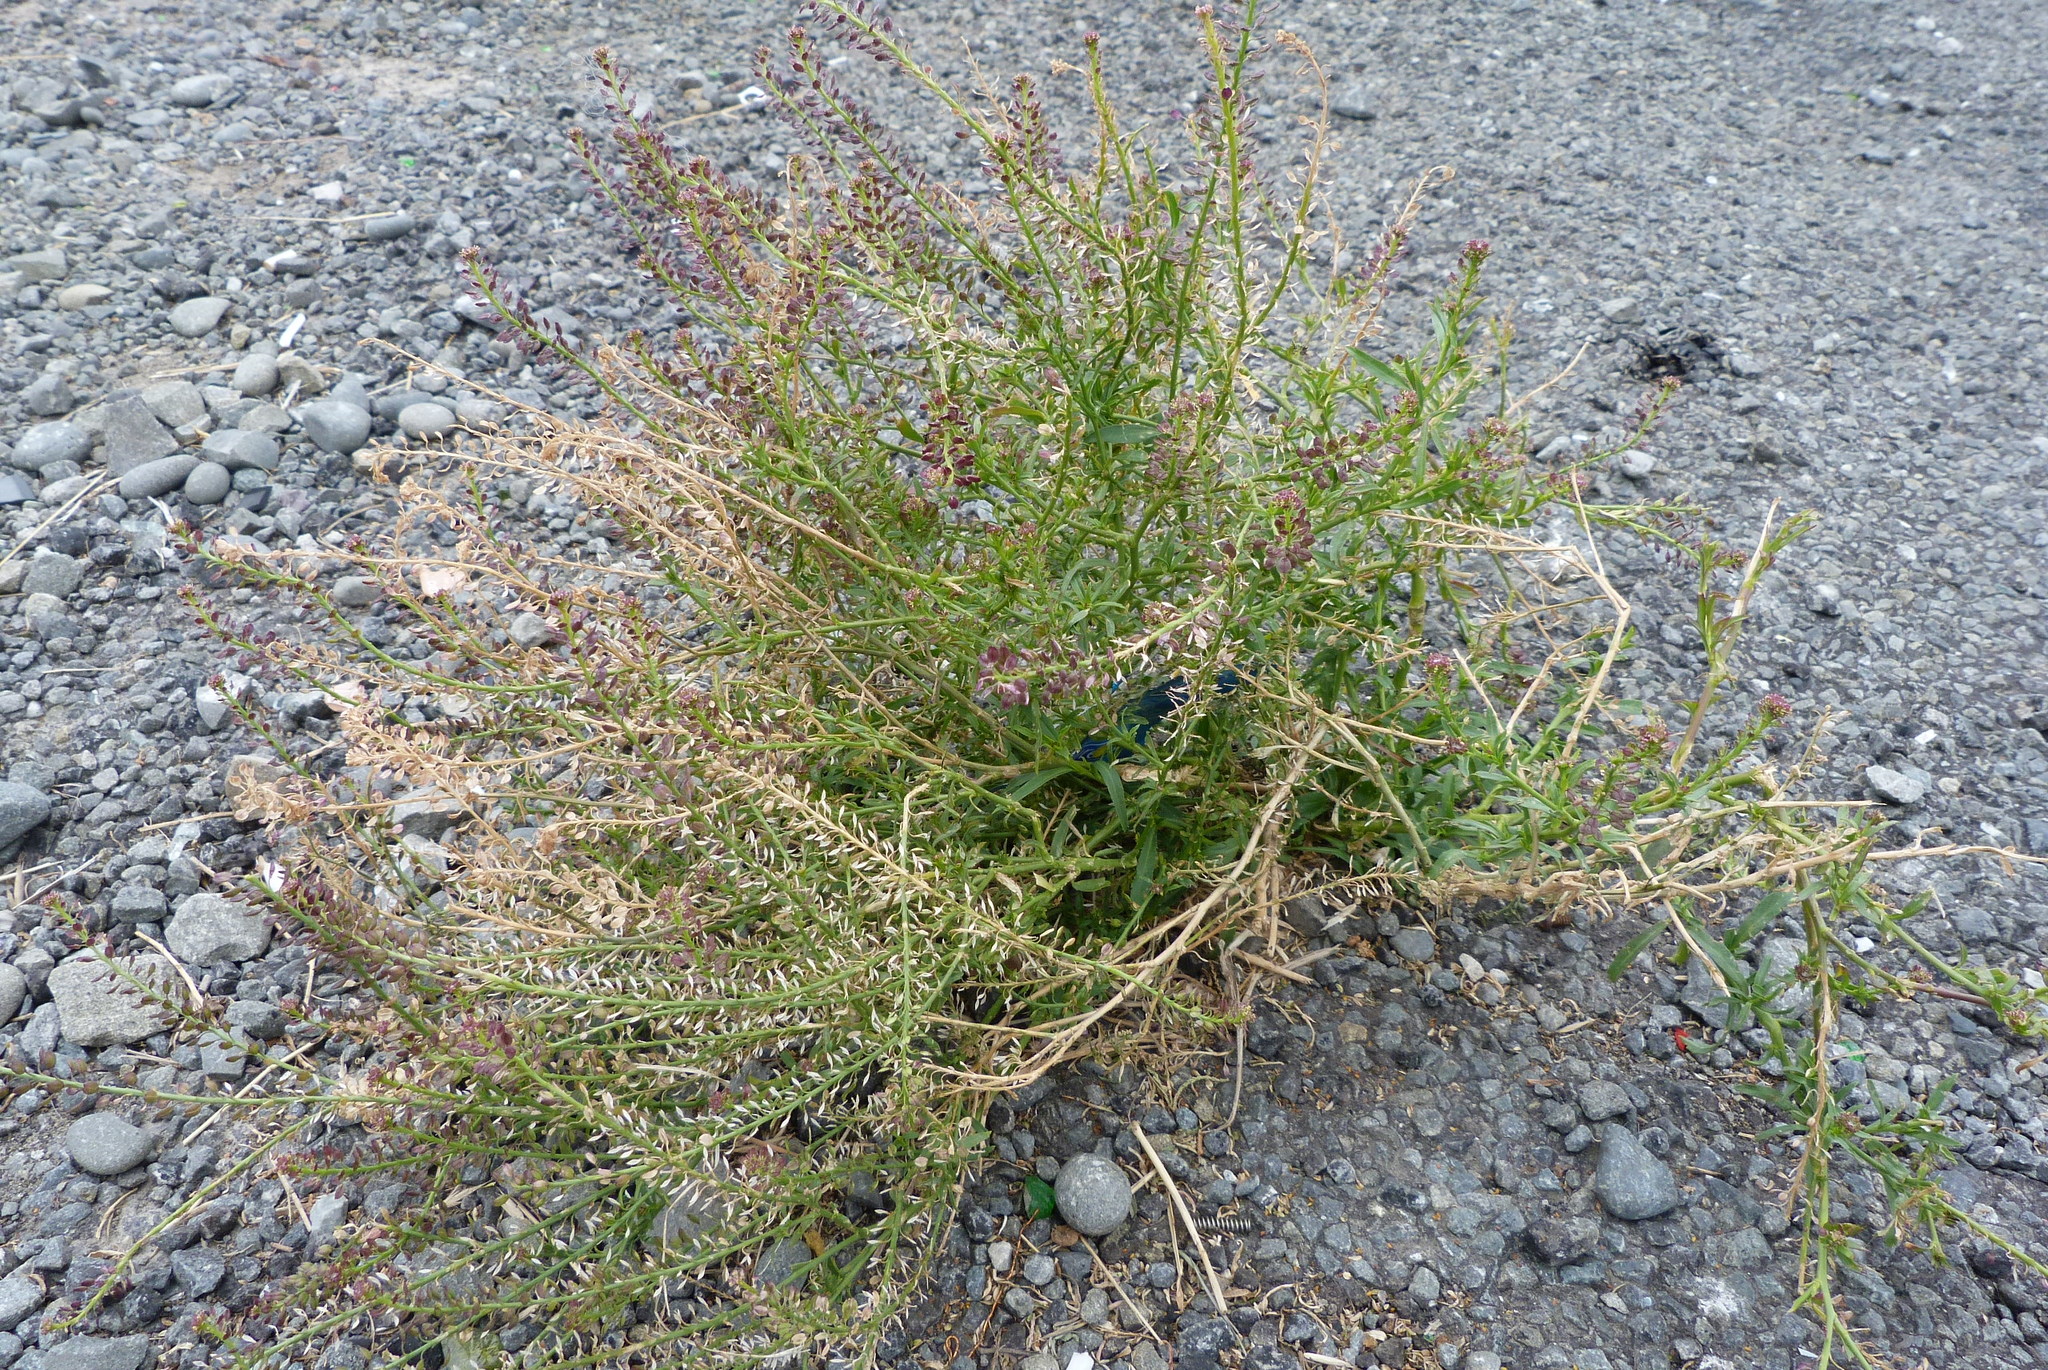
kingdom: Plantae
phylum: Tracheophyta
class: Magnoliopsida
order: Brassicales
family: Brassicaceae
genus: Lepidium
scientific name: Lepidium africanum
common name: African pepperwort
